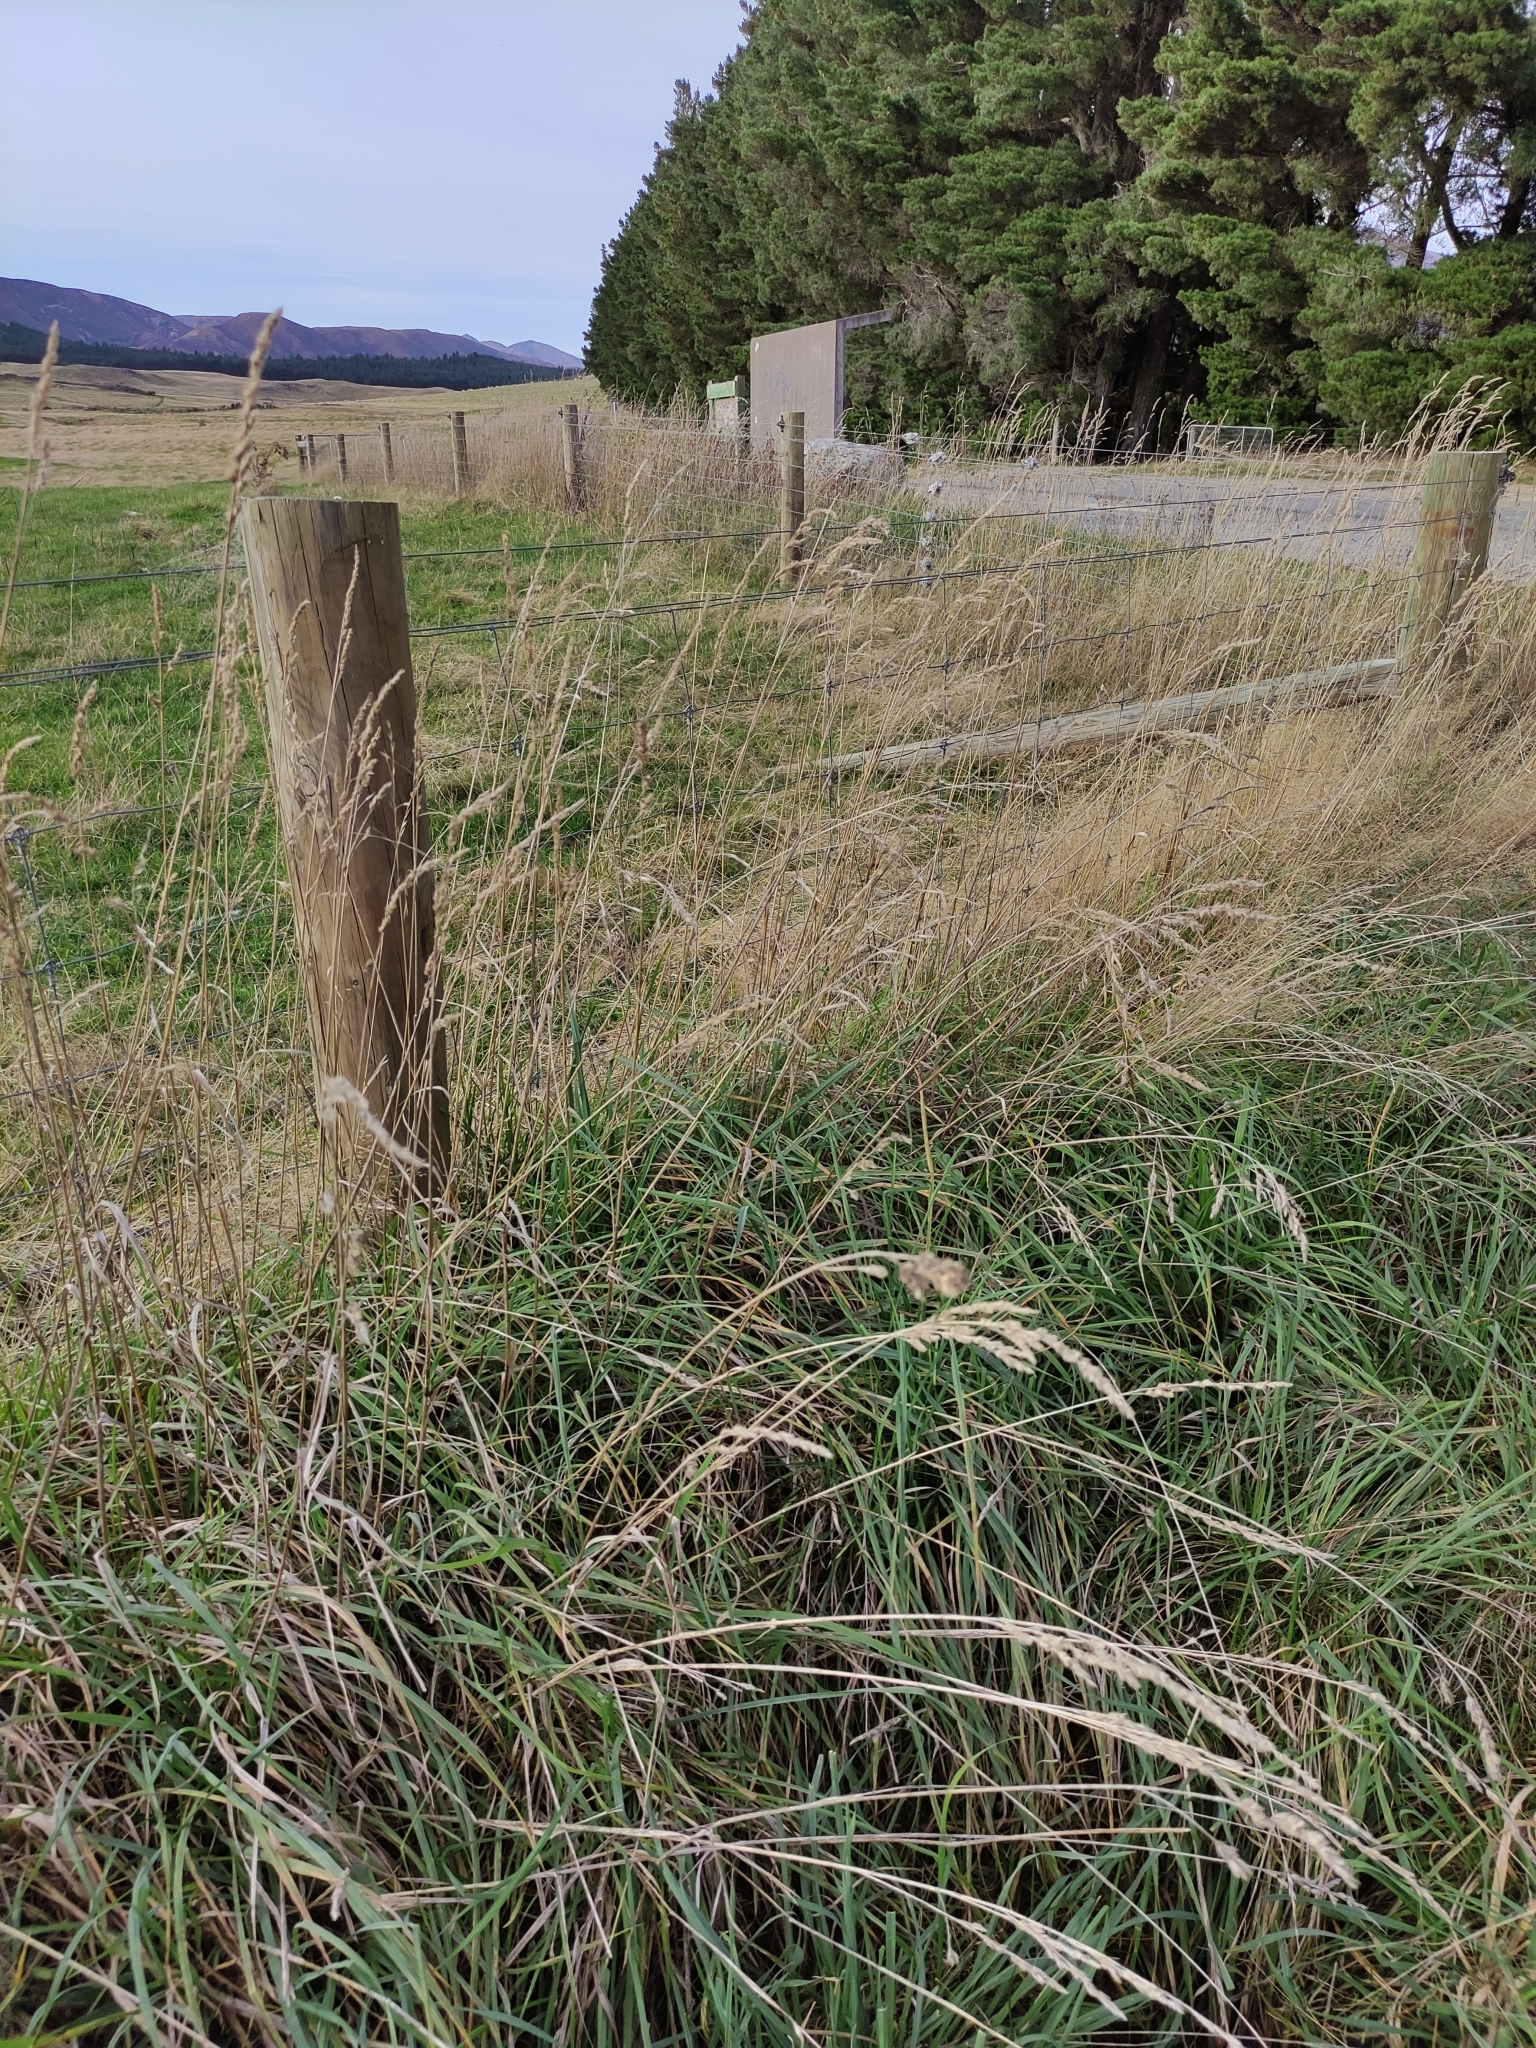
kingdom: Plantae
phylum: Tracheophyta
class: Liliopsida
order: Poales
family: Poaceae
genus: Dactylis
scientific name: Dactylis glomerata
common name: Orchardgrass
